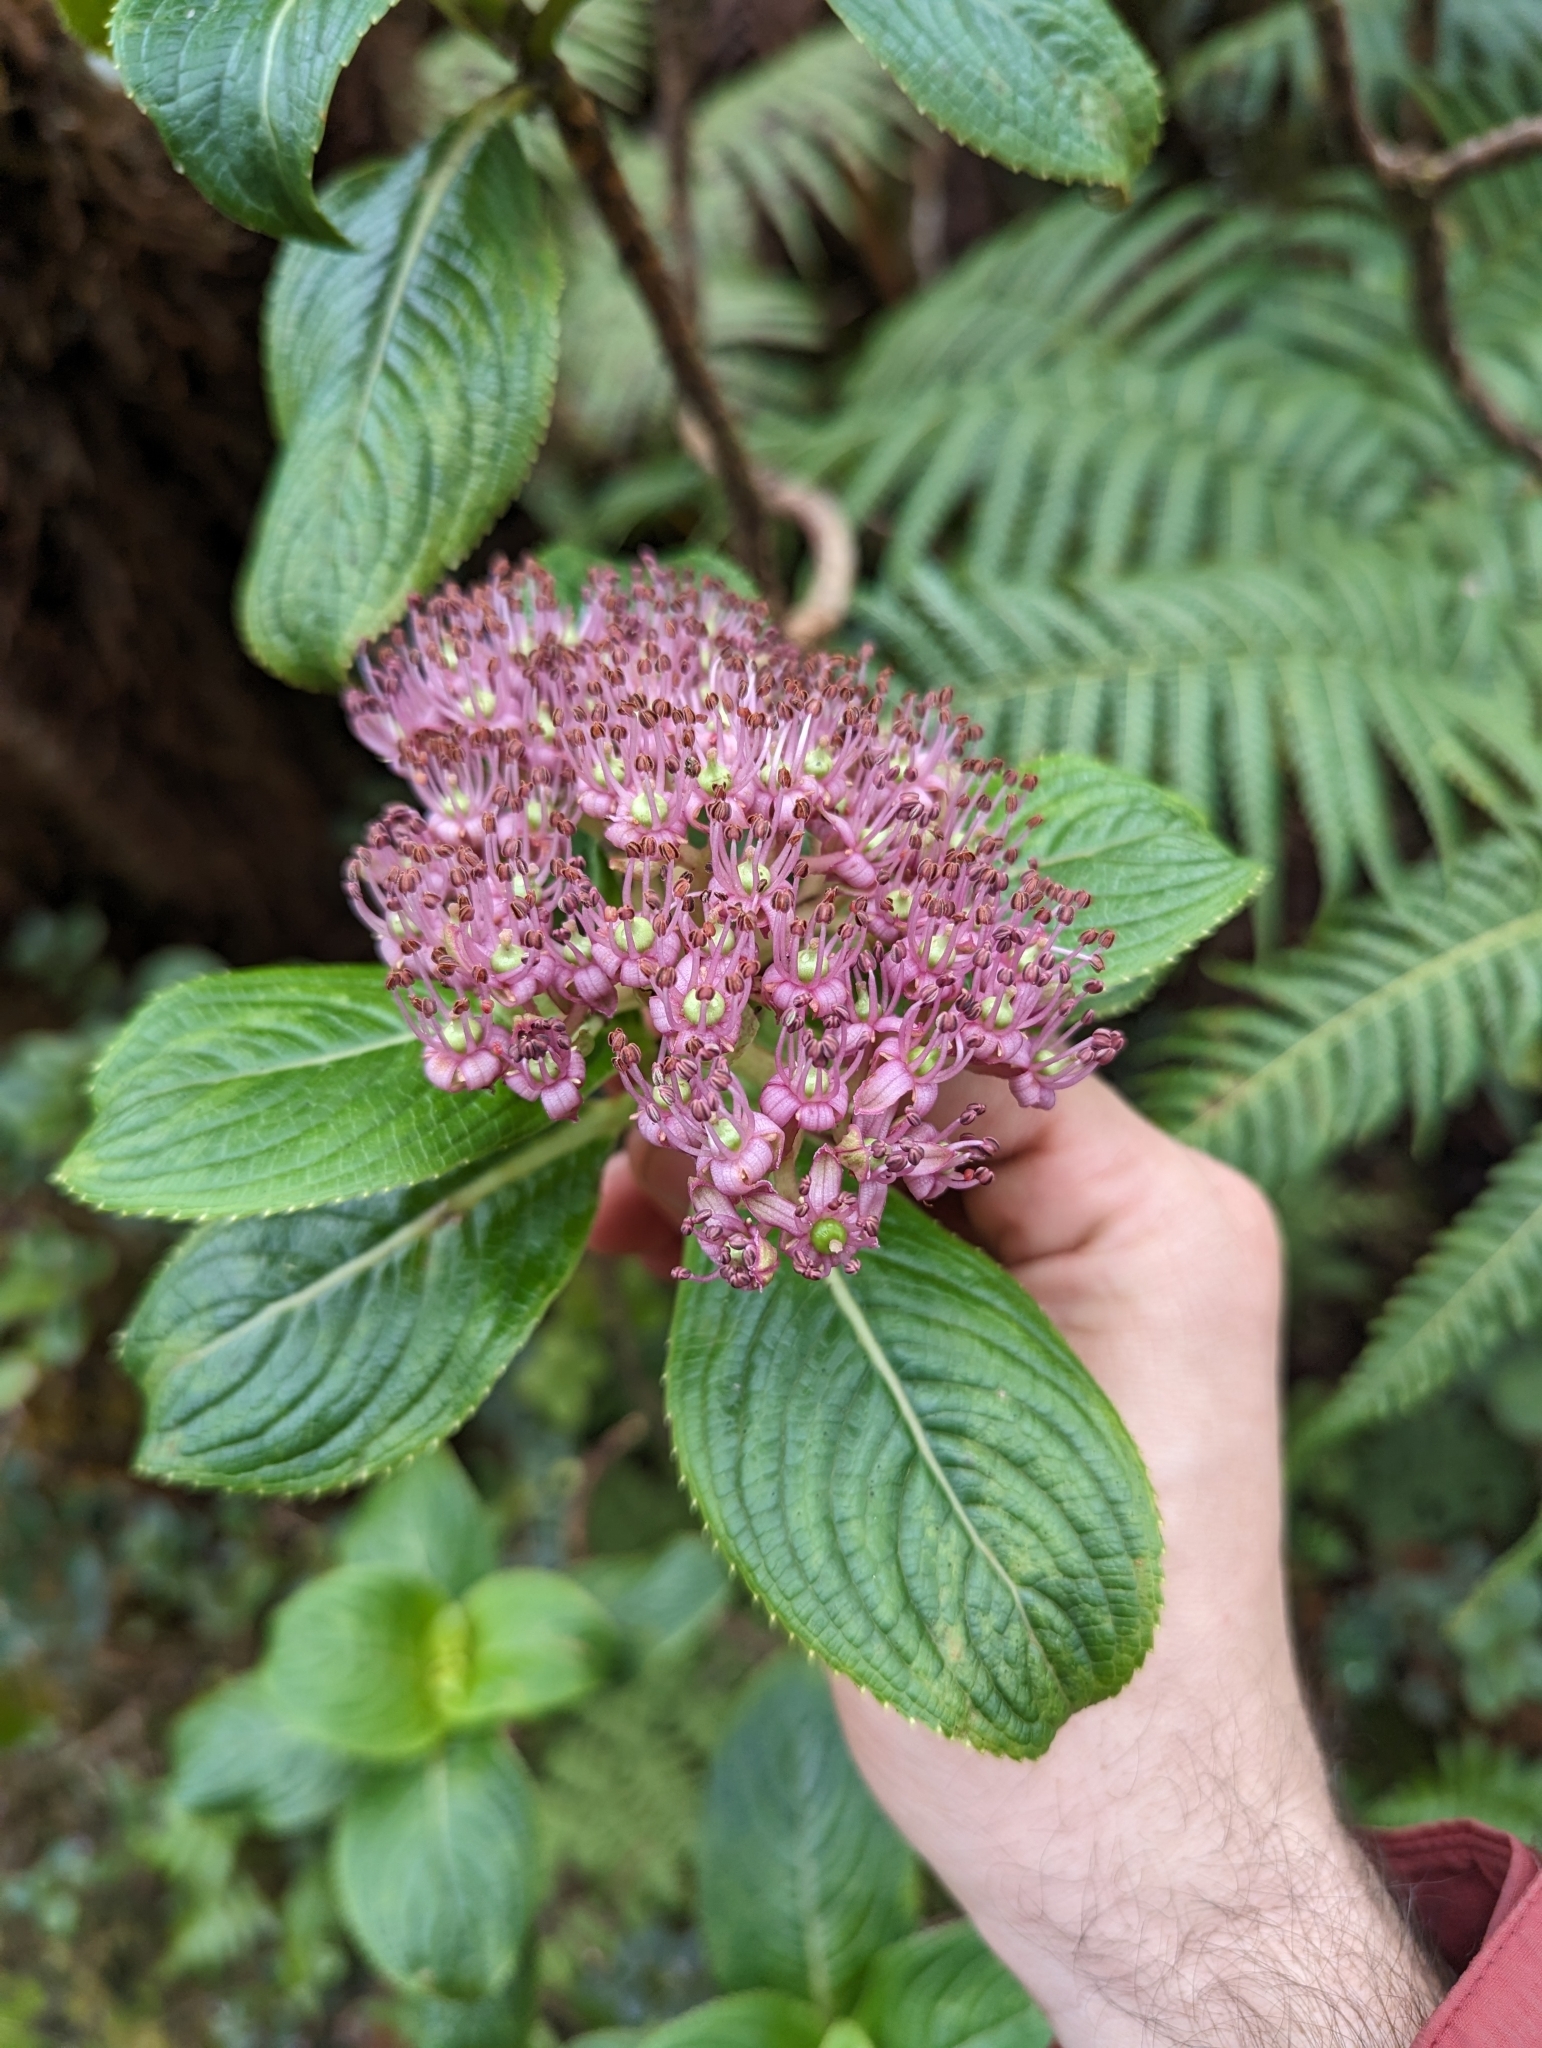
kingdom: Plantae
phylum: Tracheophyta
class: Magnoliopsida
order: Cornales
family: Hydrangeaceae
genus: Hydrangea
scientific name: Hydrangea arguta
